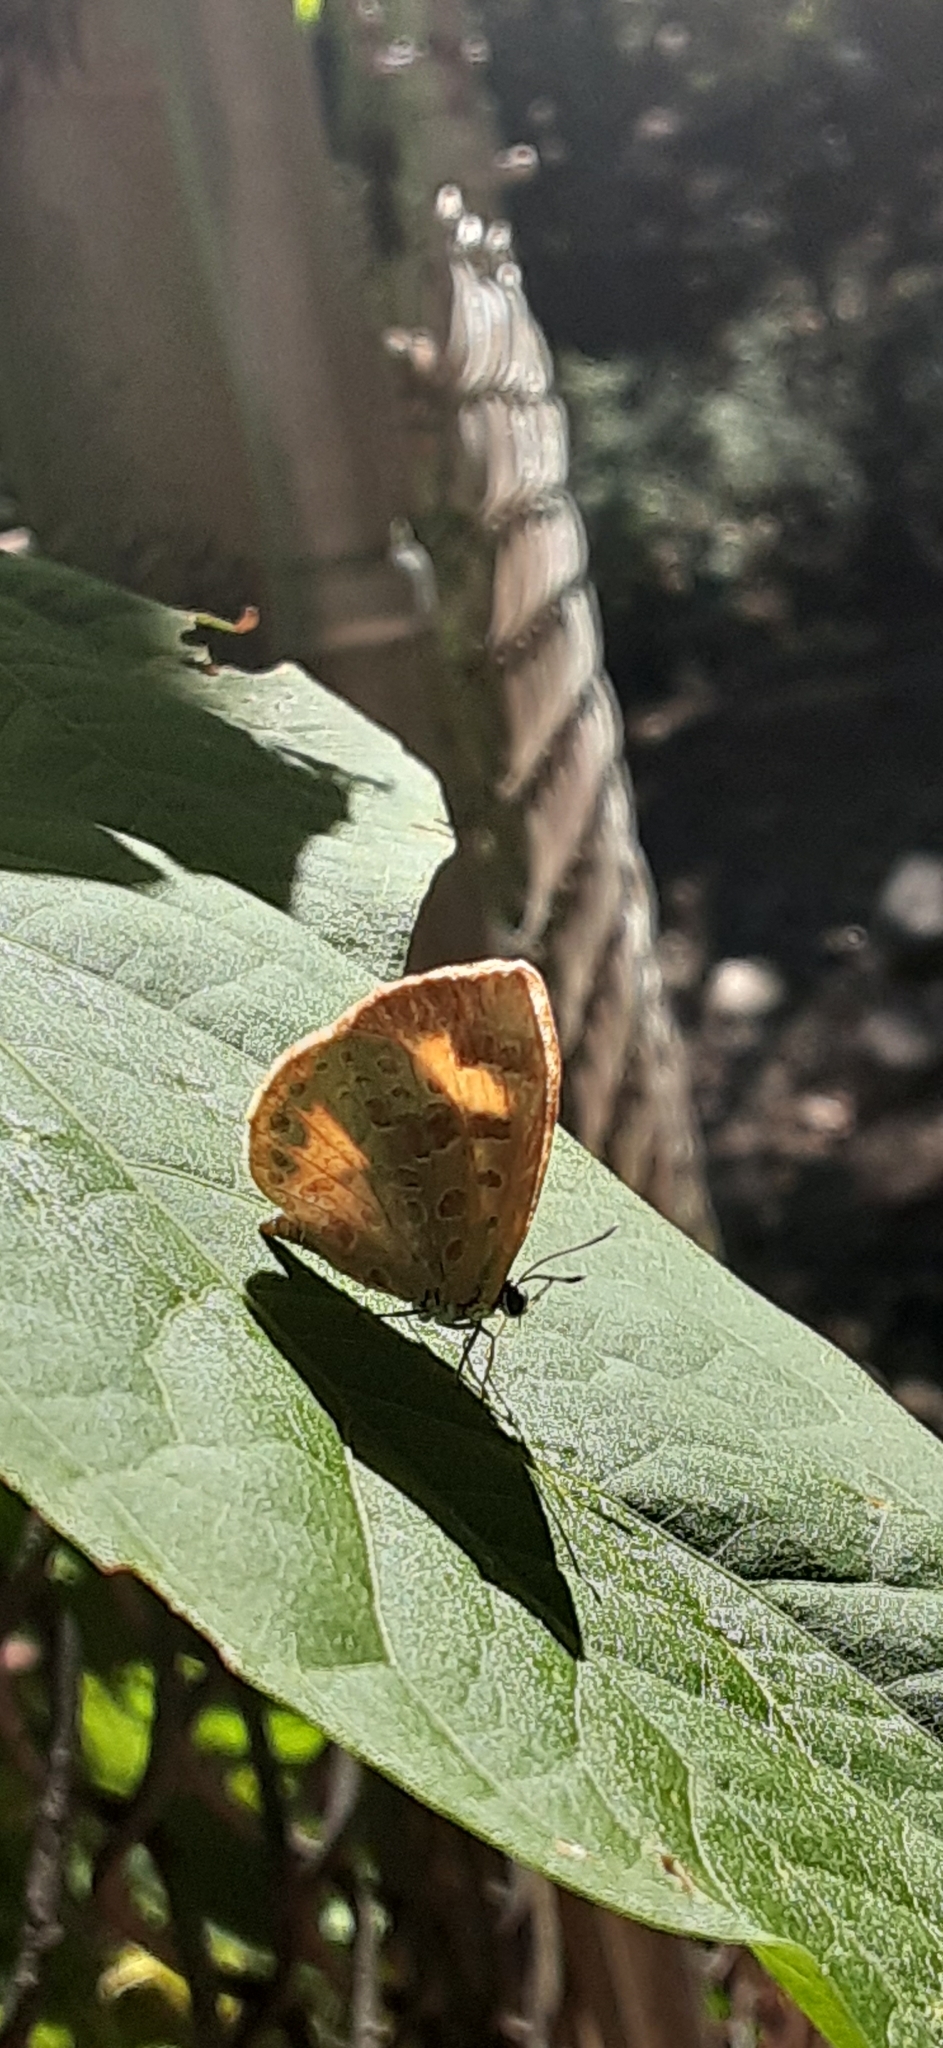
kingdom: Animalia
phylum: Arthropoda
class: Insecta
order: Lepidoptera
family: Lycaenidae
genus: Feniseca
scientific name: Feniseca tarquinius
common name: Harvester
